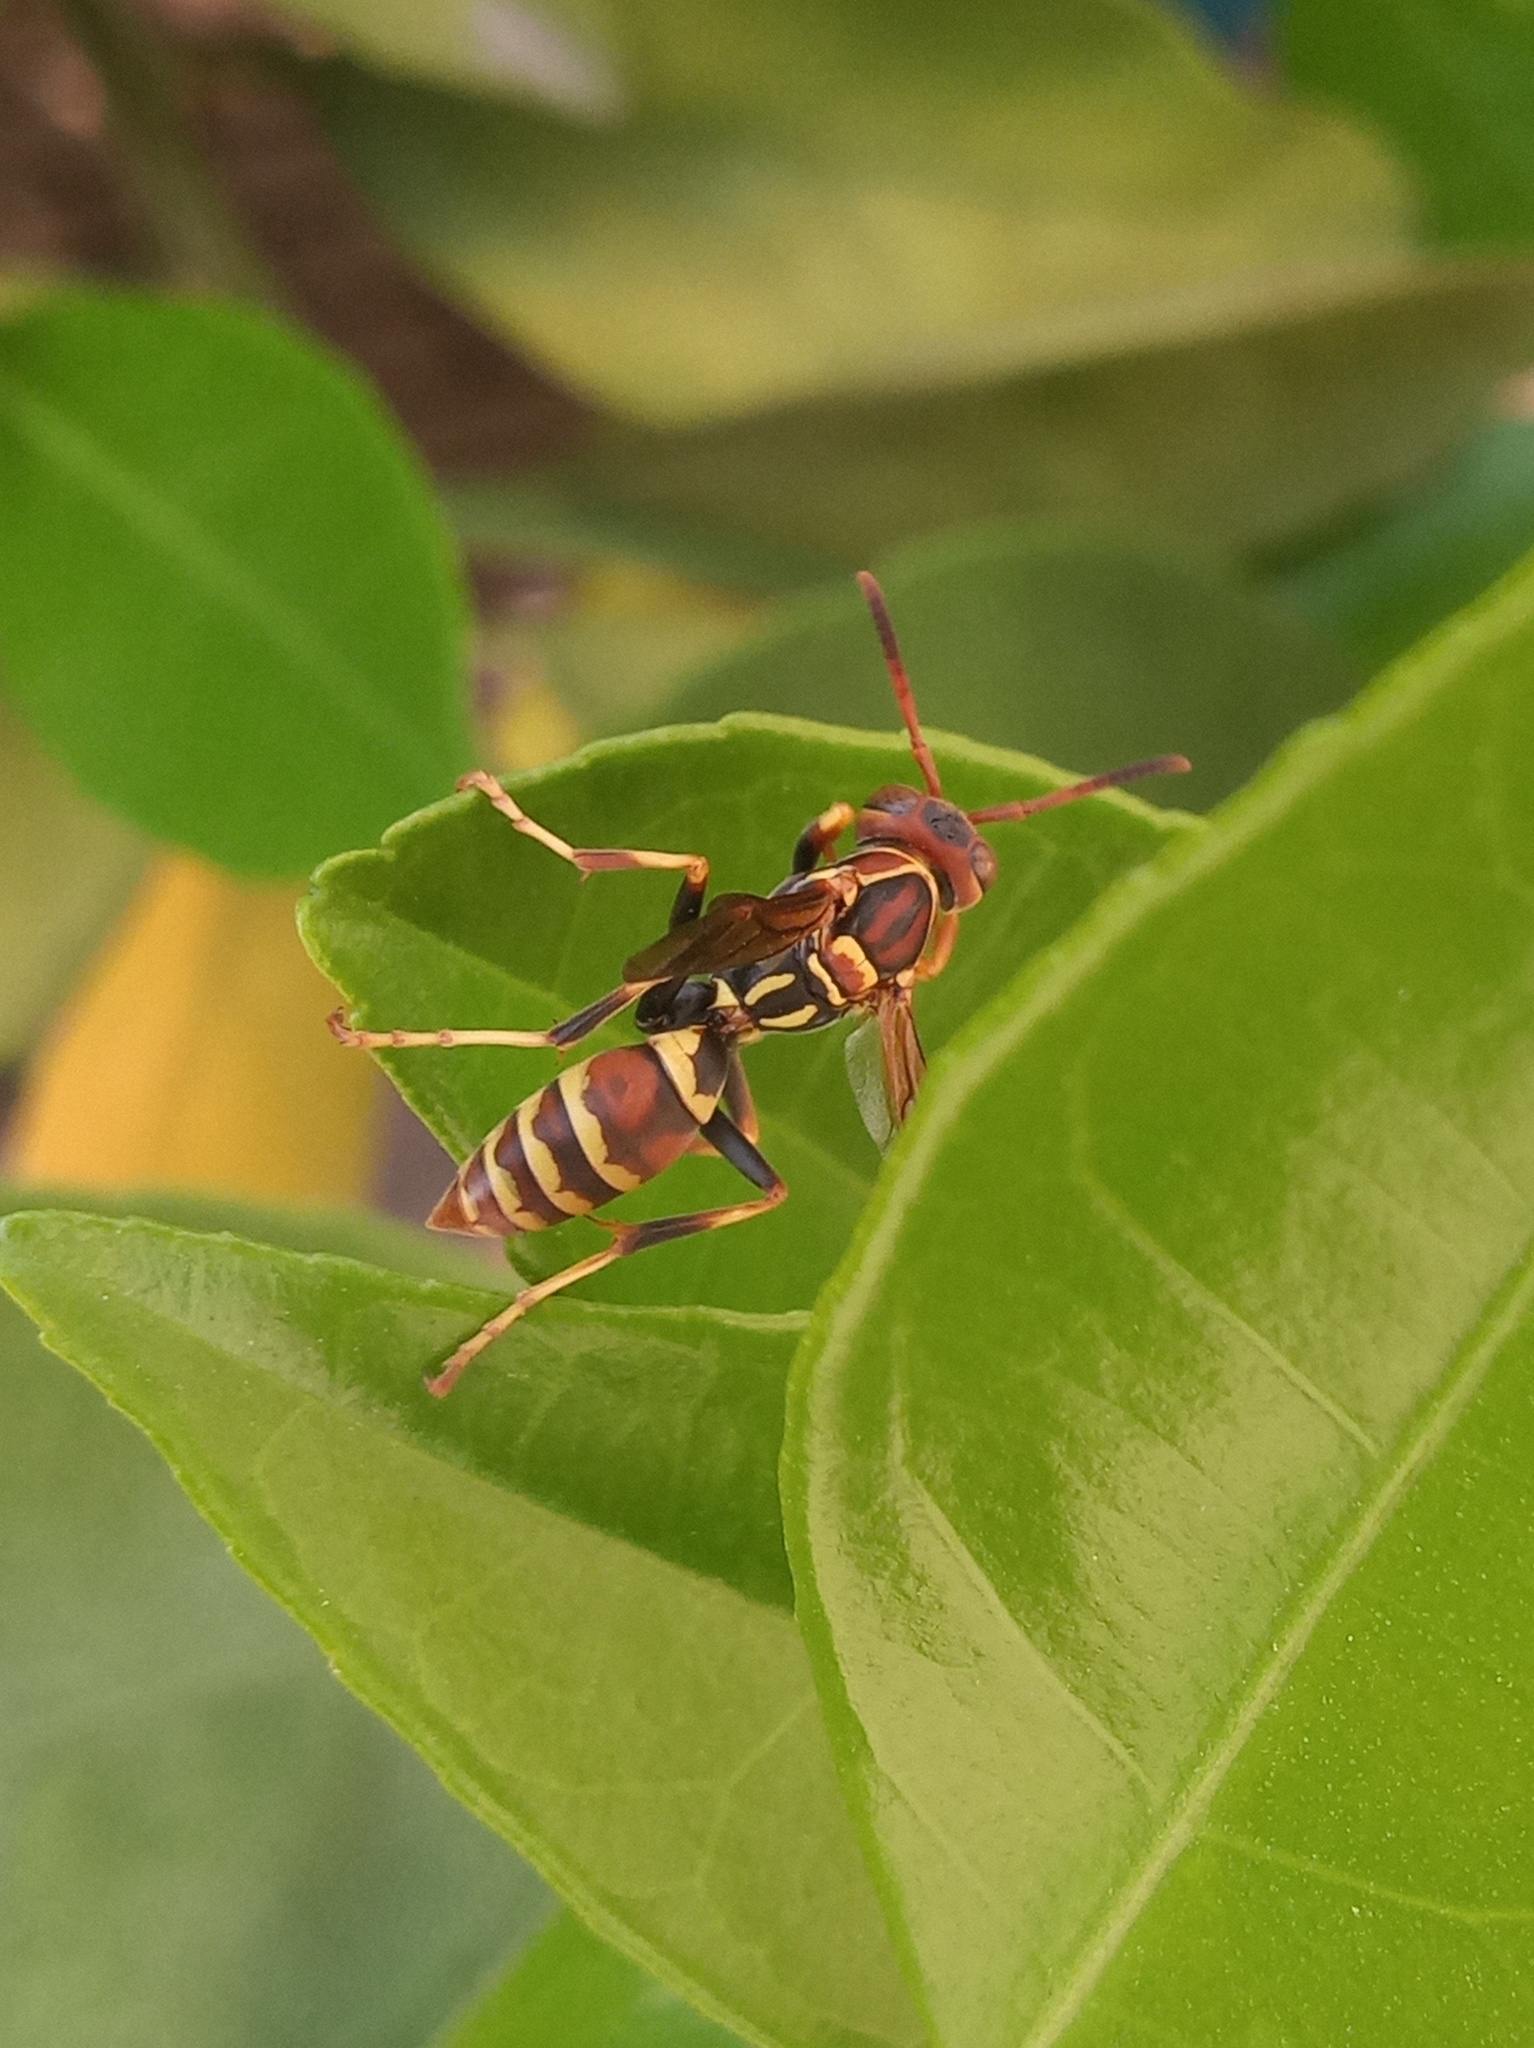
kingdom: Animalia
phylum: Arthropoda
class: Insecta
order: Hymenoptera
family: Eumenidae
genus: Polistes
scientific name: Polistes dorsalis
